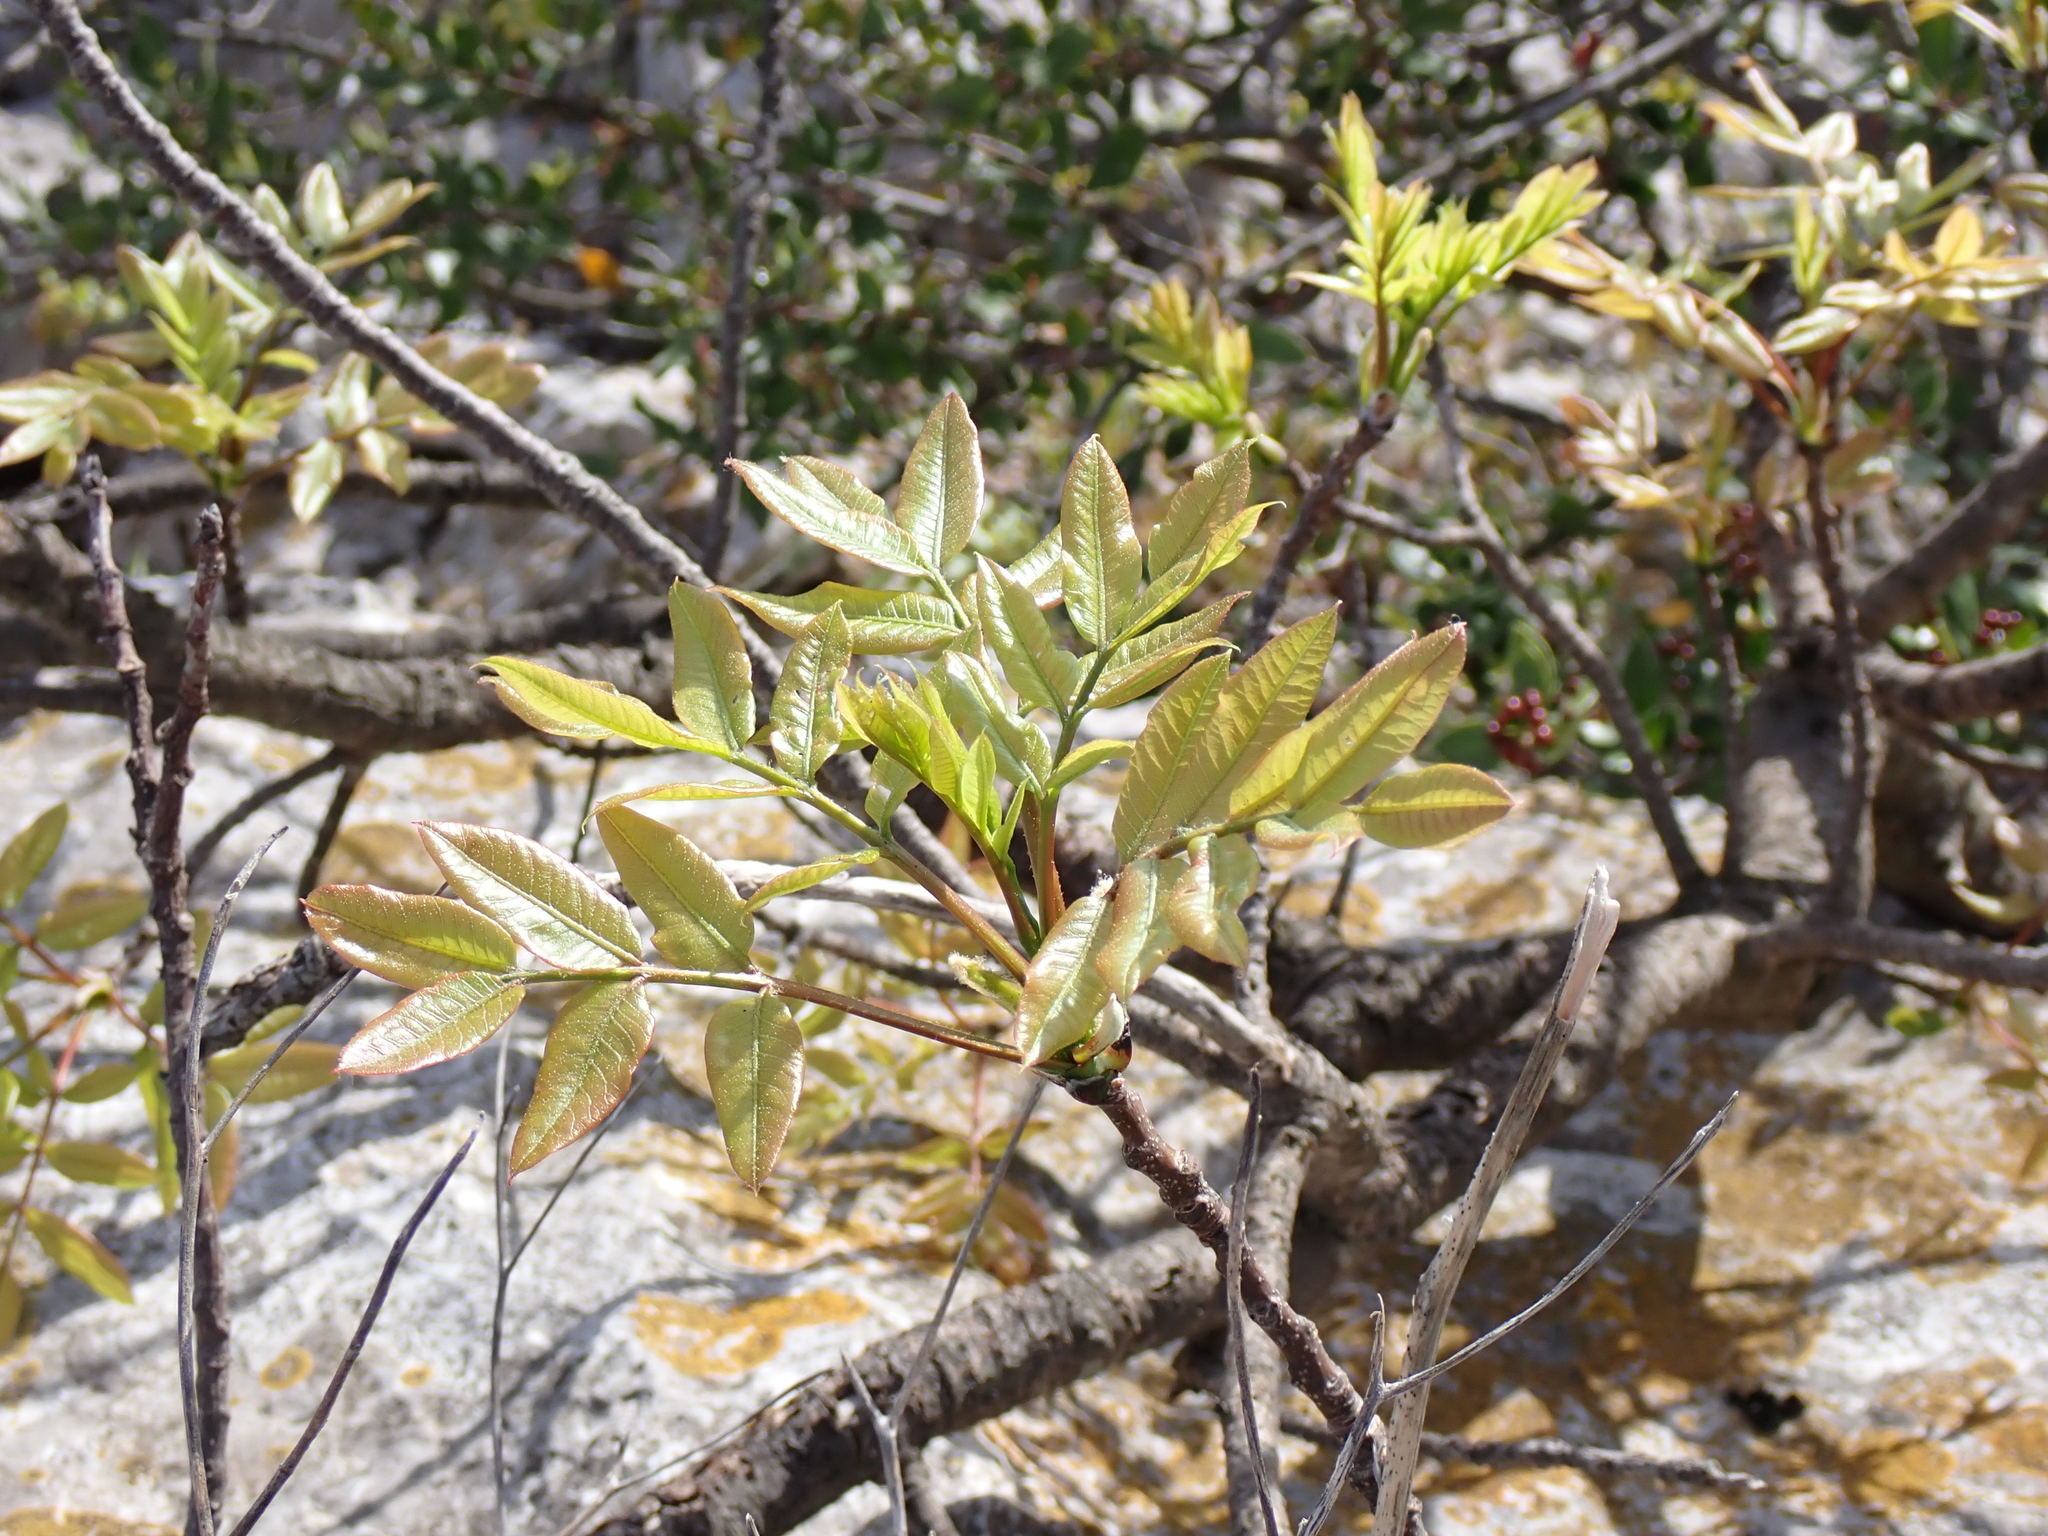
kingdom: Plantae
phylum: Tracheophyta
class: Magnoliopsida
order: Sapindales
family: Anacardiaceae
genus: Pistacia
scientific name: Pistacia terebinthus
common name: Terebinth
